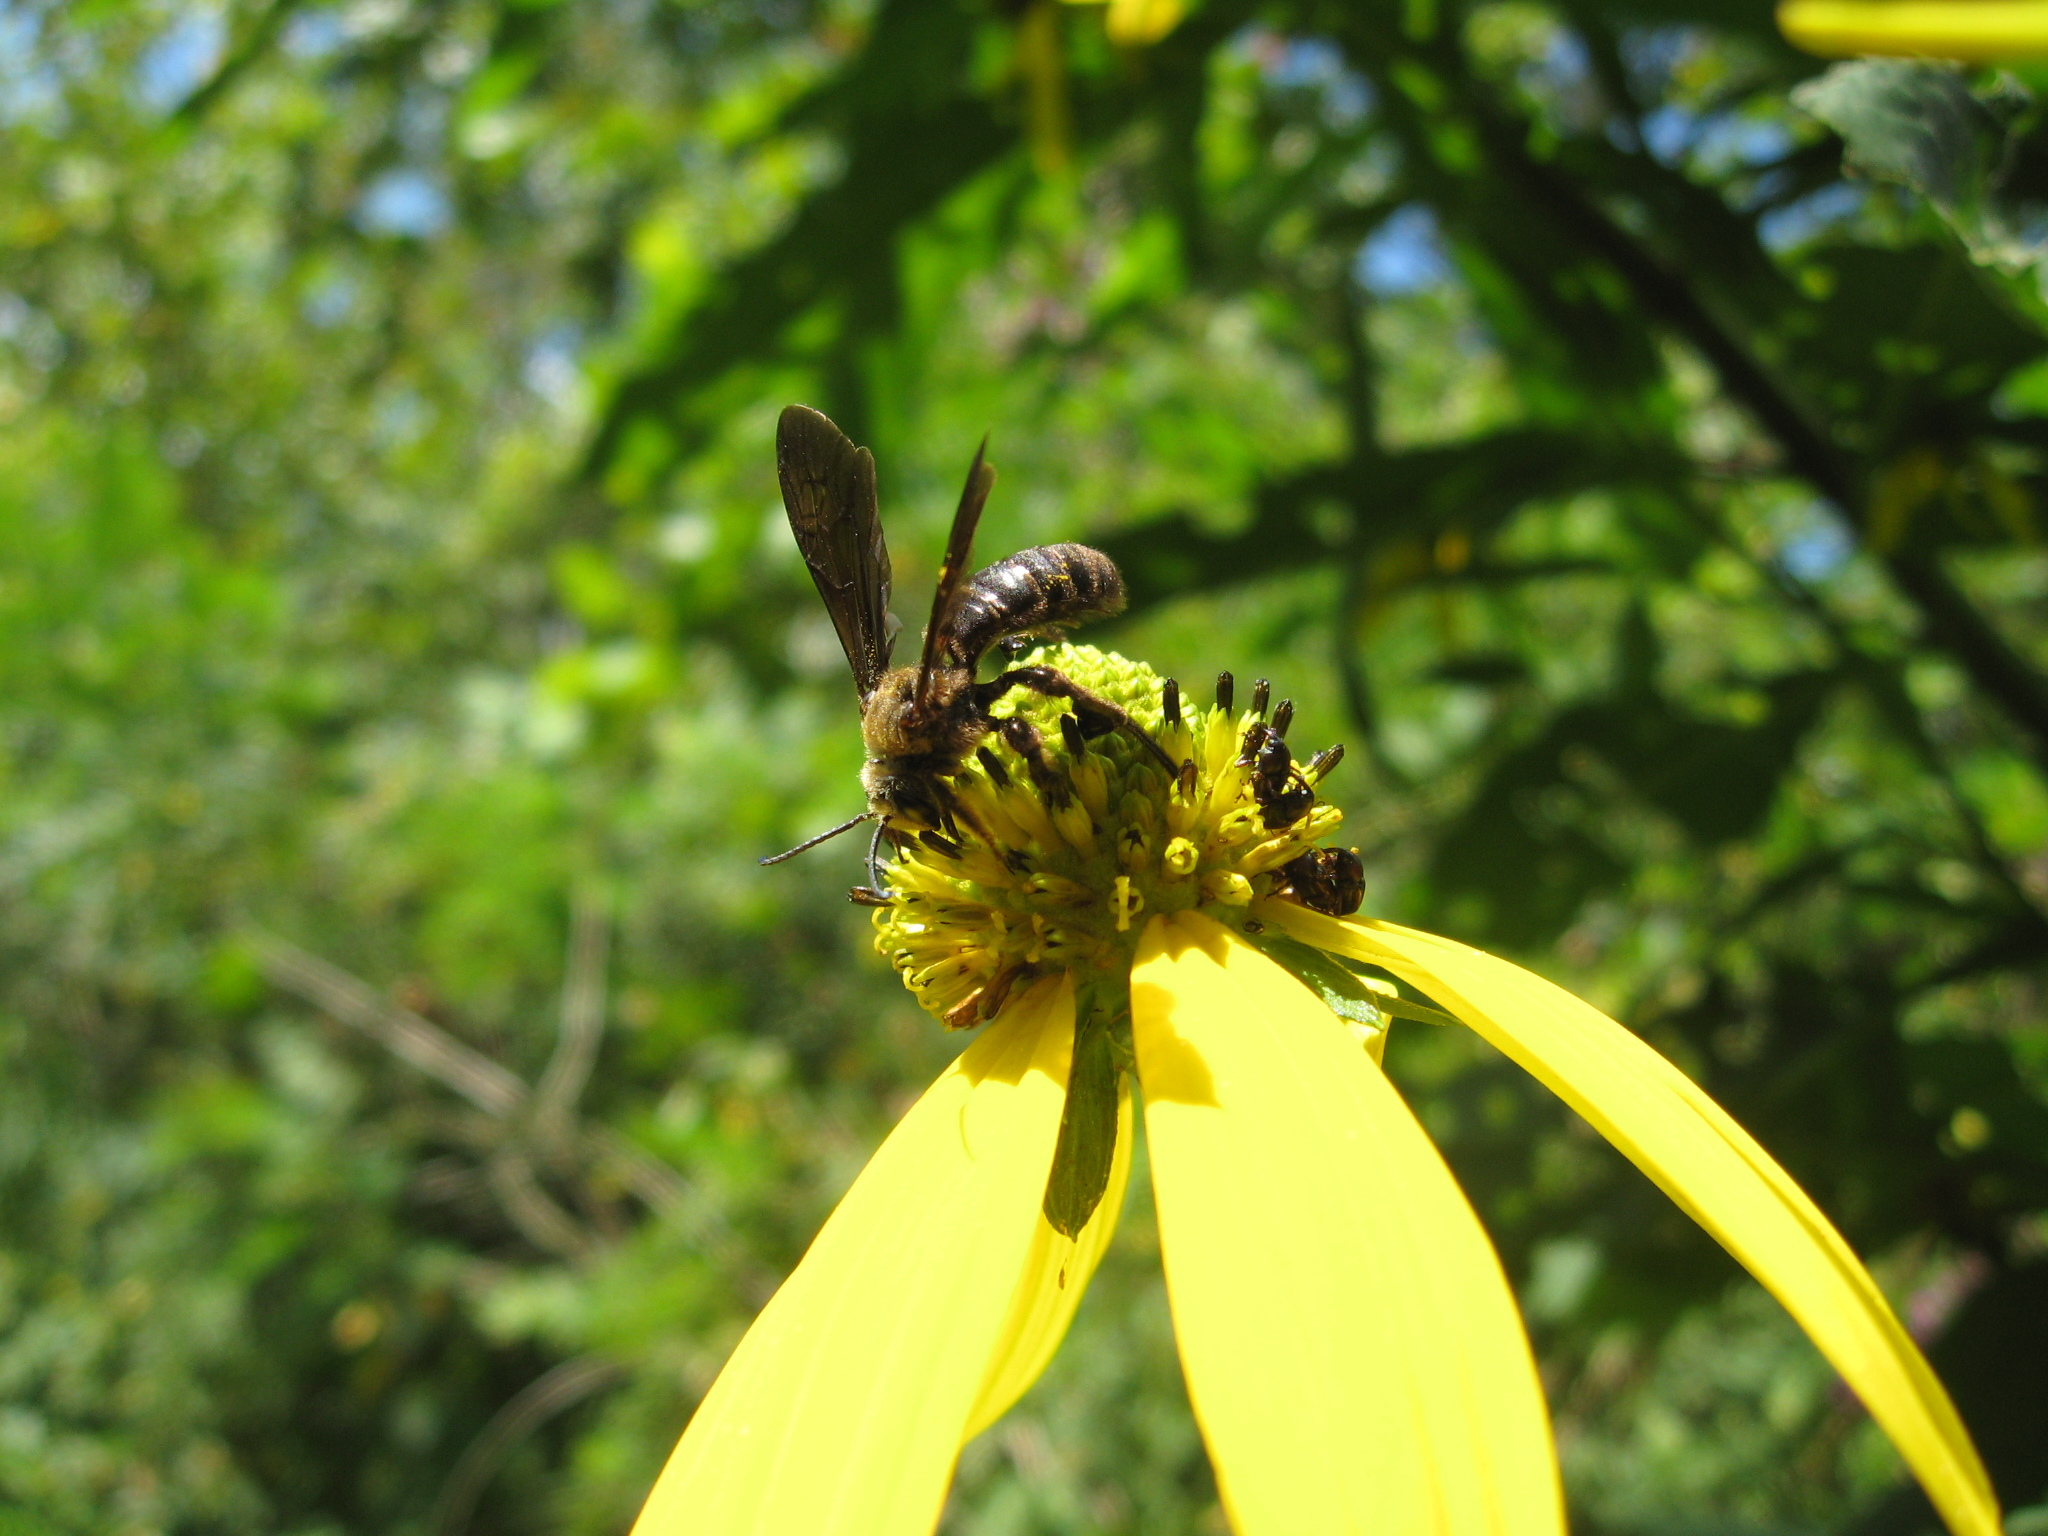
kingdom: Animalia
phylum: Arthropoda
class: Insecta
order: Hymenoptera
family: Halictidae
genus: Dieunomia
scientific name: Dieunomia heteropoda
